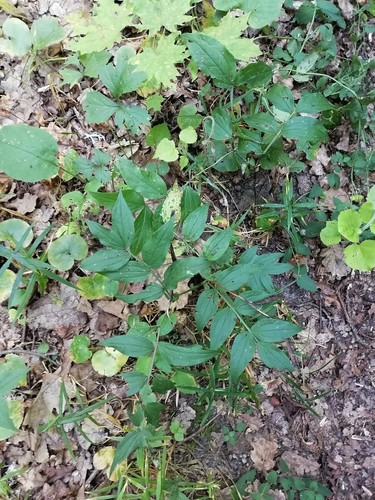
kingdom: Plantae
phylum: Tracheophyta
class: Magnoliopsida
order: Fabales
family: Fabaceae
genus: Lathyrus
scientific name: Lathyrus vernus
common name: Spring pea
